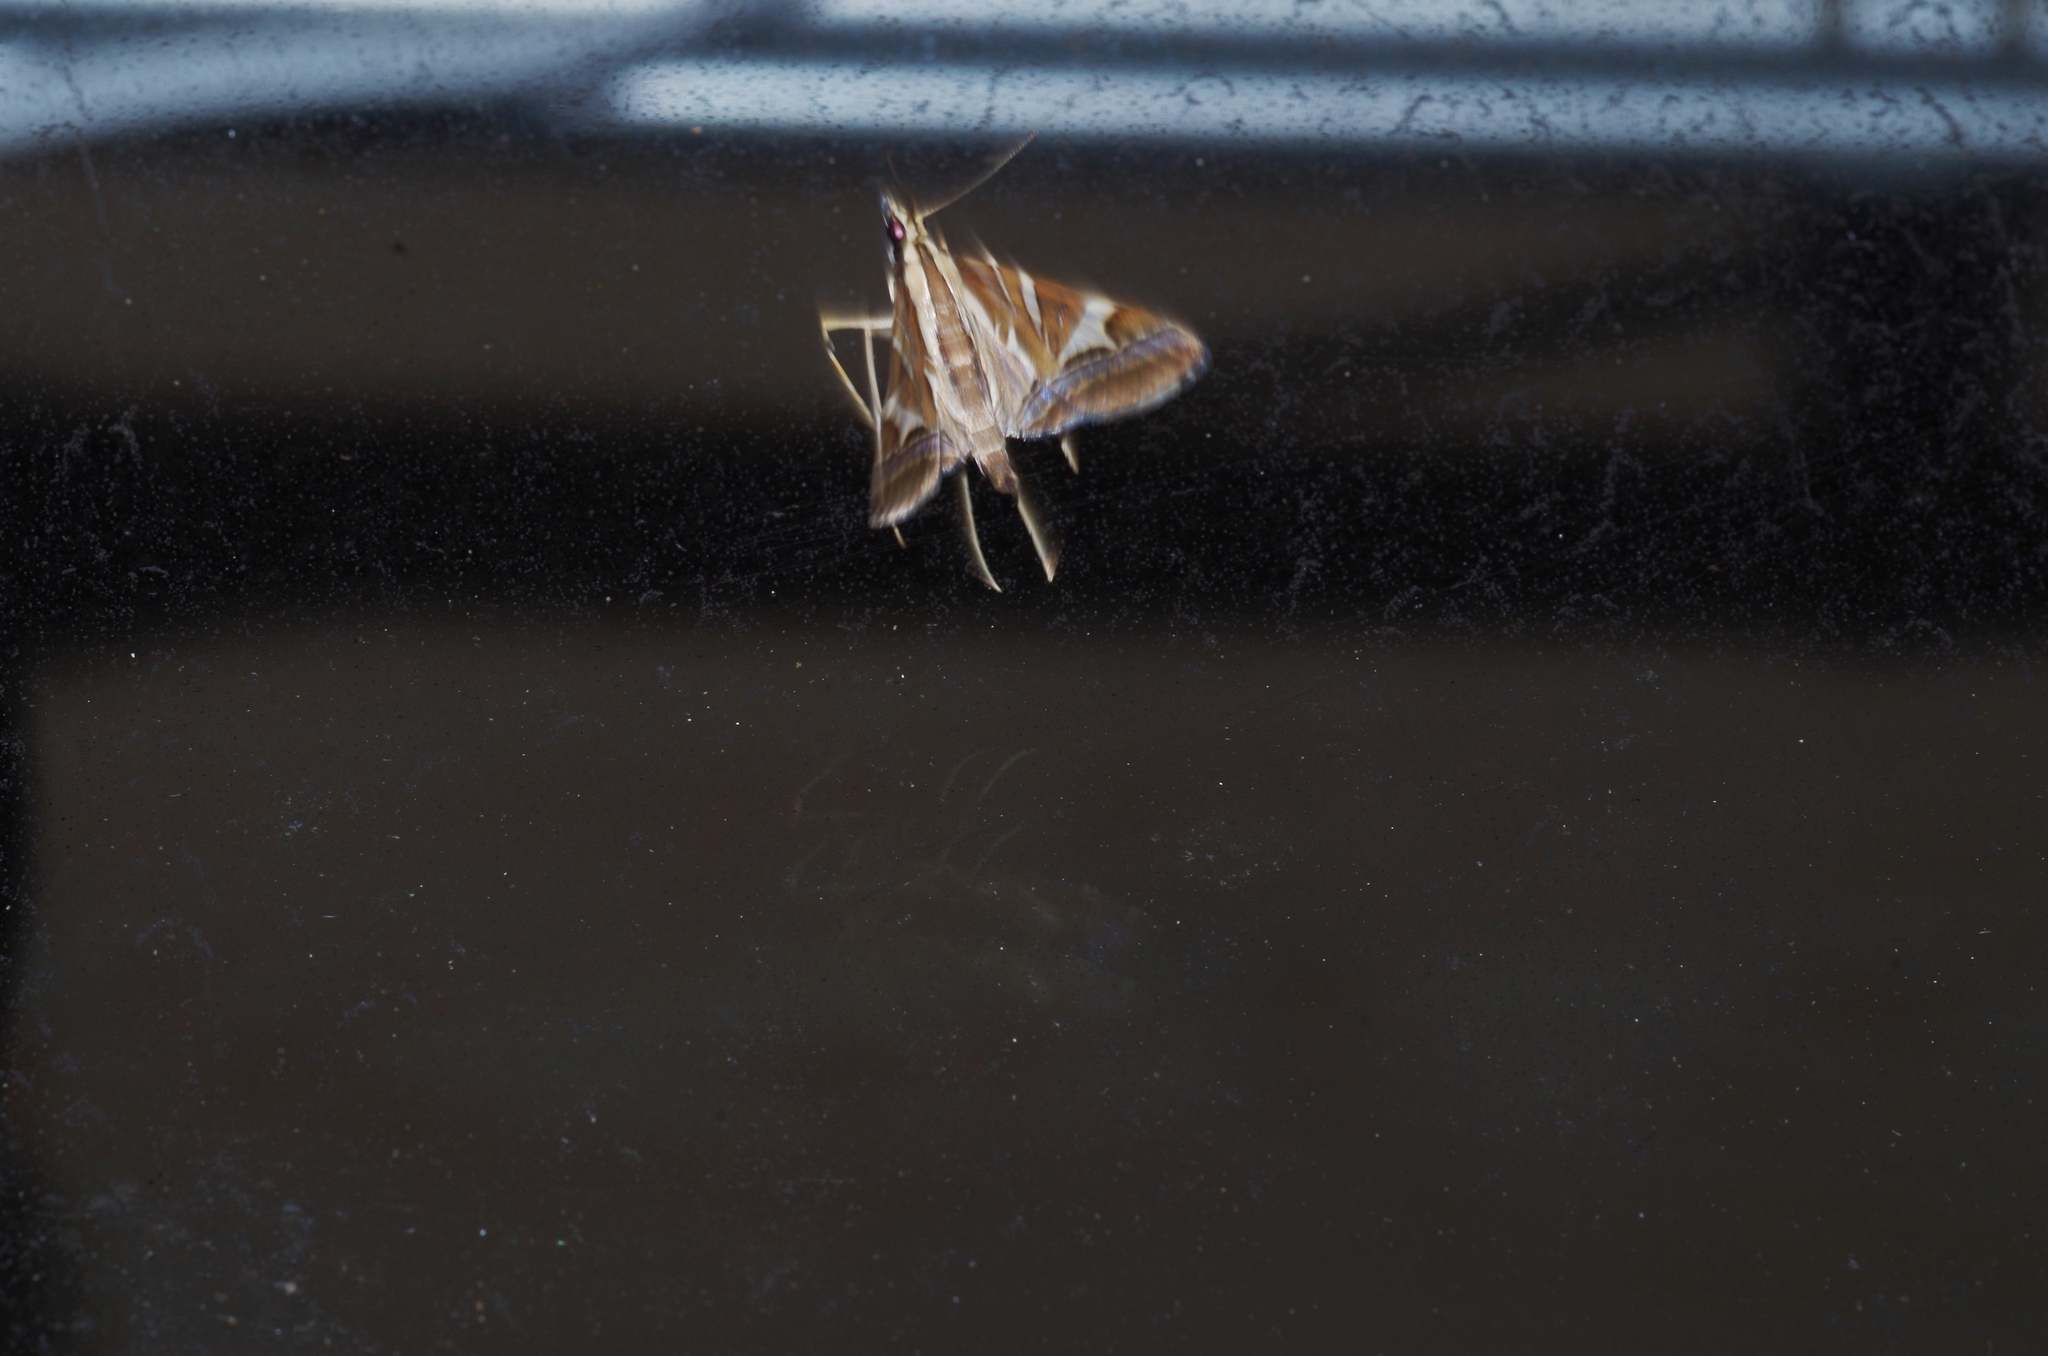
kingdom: Animalia
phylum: Arthropoda
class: Insecta
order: Lepidoptera
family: Crambidae
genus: Agrioglypta
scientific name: Agrioglypta itysalis
